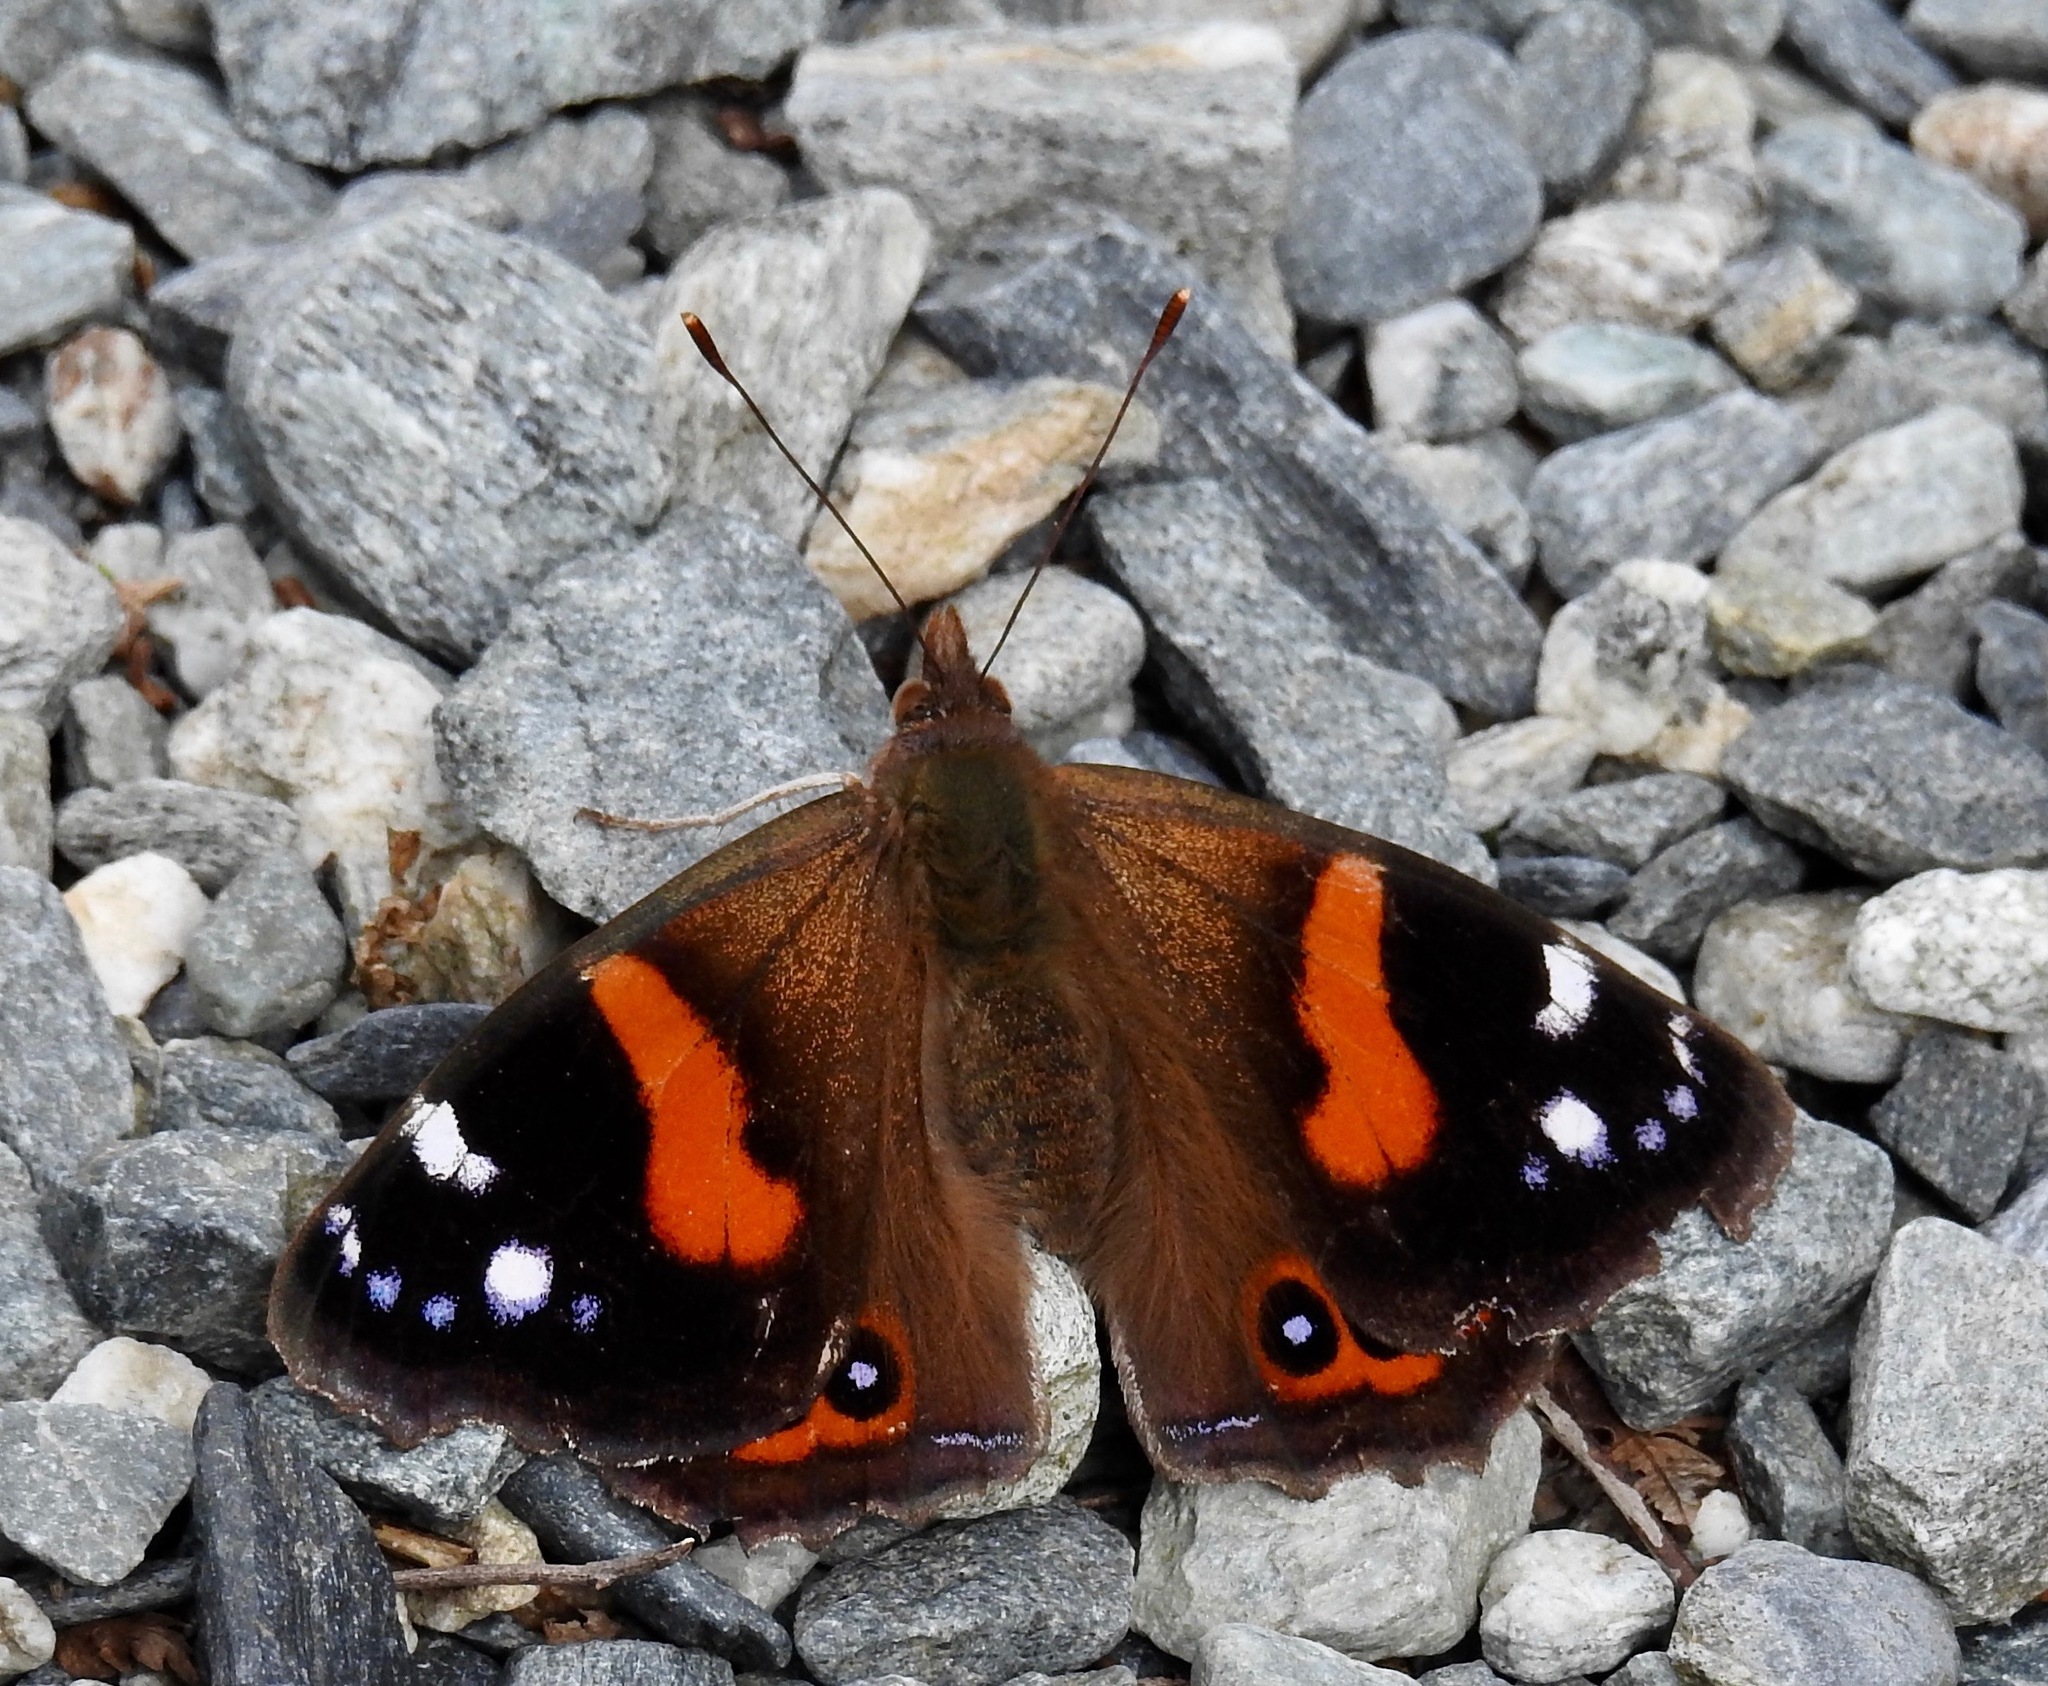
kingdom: Animalia
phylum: Arthropoda
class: Insecta
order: Lepidoptera
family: Nymphalidae
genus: Vanessa
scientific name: Vanessa gonerilla
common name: New zealand red admiral
